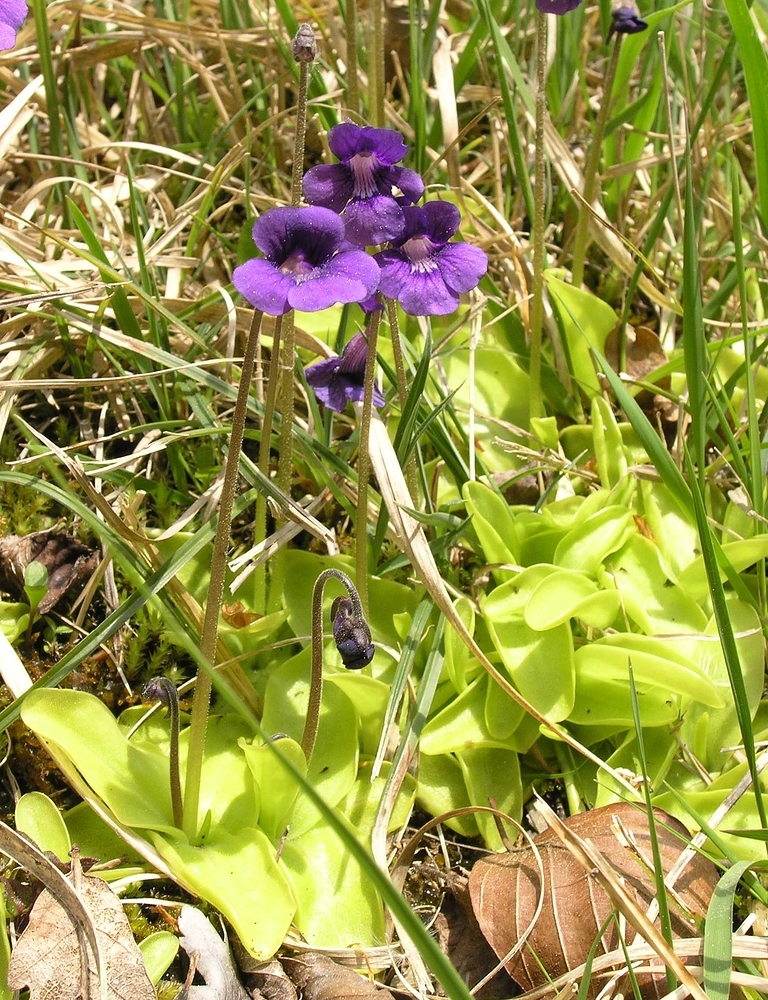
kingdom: Plantae
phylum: Tracheophyta
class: Magnoliopsida
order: Lamiales
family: Lentibulariaceae
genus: Pinguicula
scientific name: Pinguicula grandiflora
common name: Large-flowered butterwort
